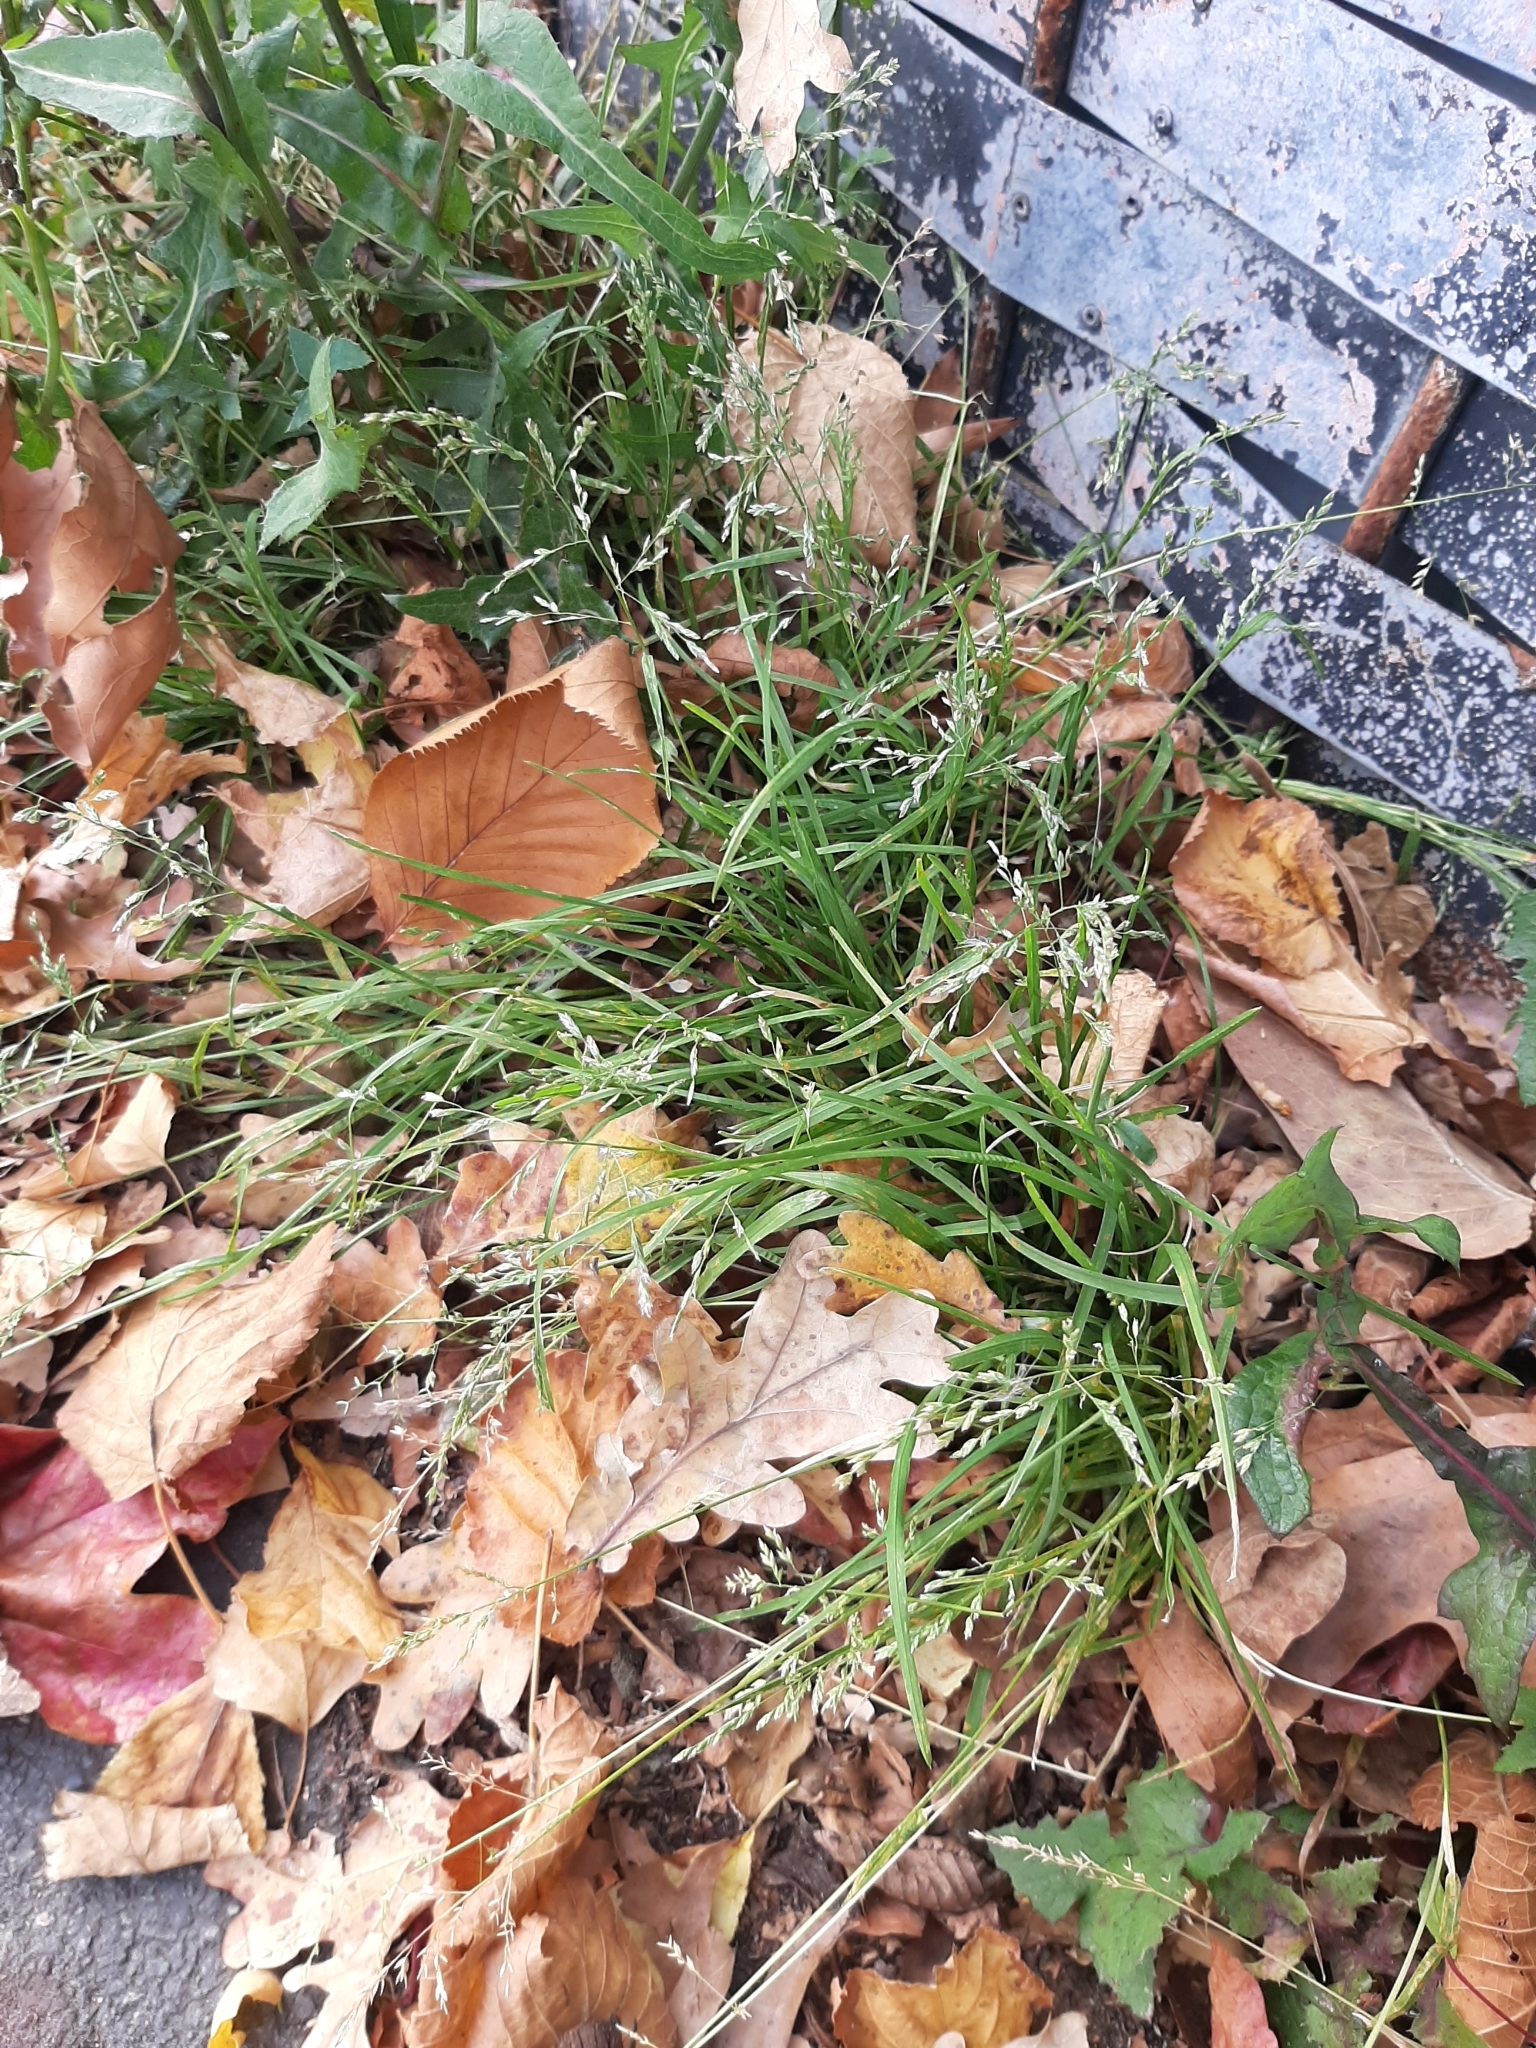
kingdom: Plantae
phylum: Tracheophyta
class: Liliopsida
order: Poales
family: Poaceae
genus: Poa
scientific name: Poa annua
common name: Annual bluegrass
